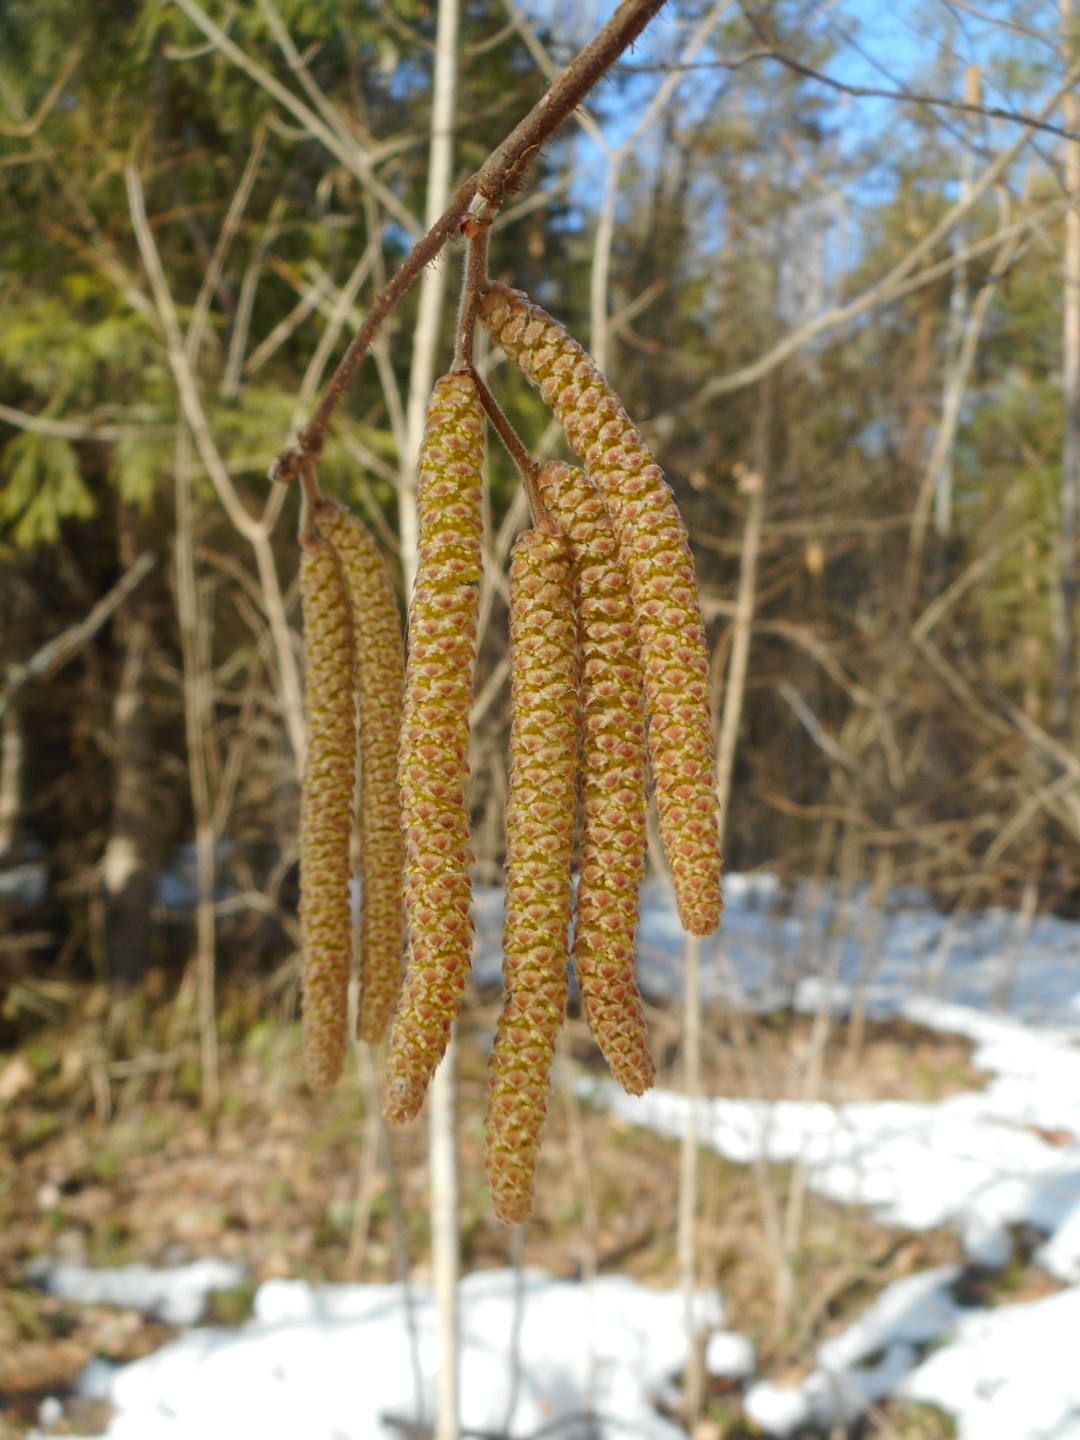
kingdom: Plantae
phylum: Tracheophyta
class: Magnoliopsida
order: Fagales
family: Betulaceae
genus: Corylus
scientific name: Corylus avellana
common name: European hazel
